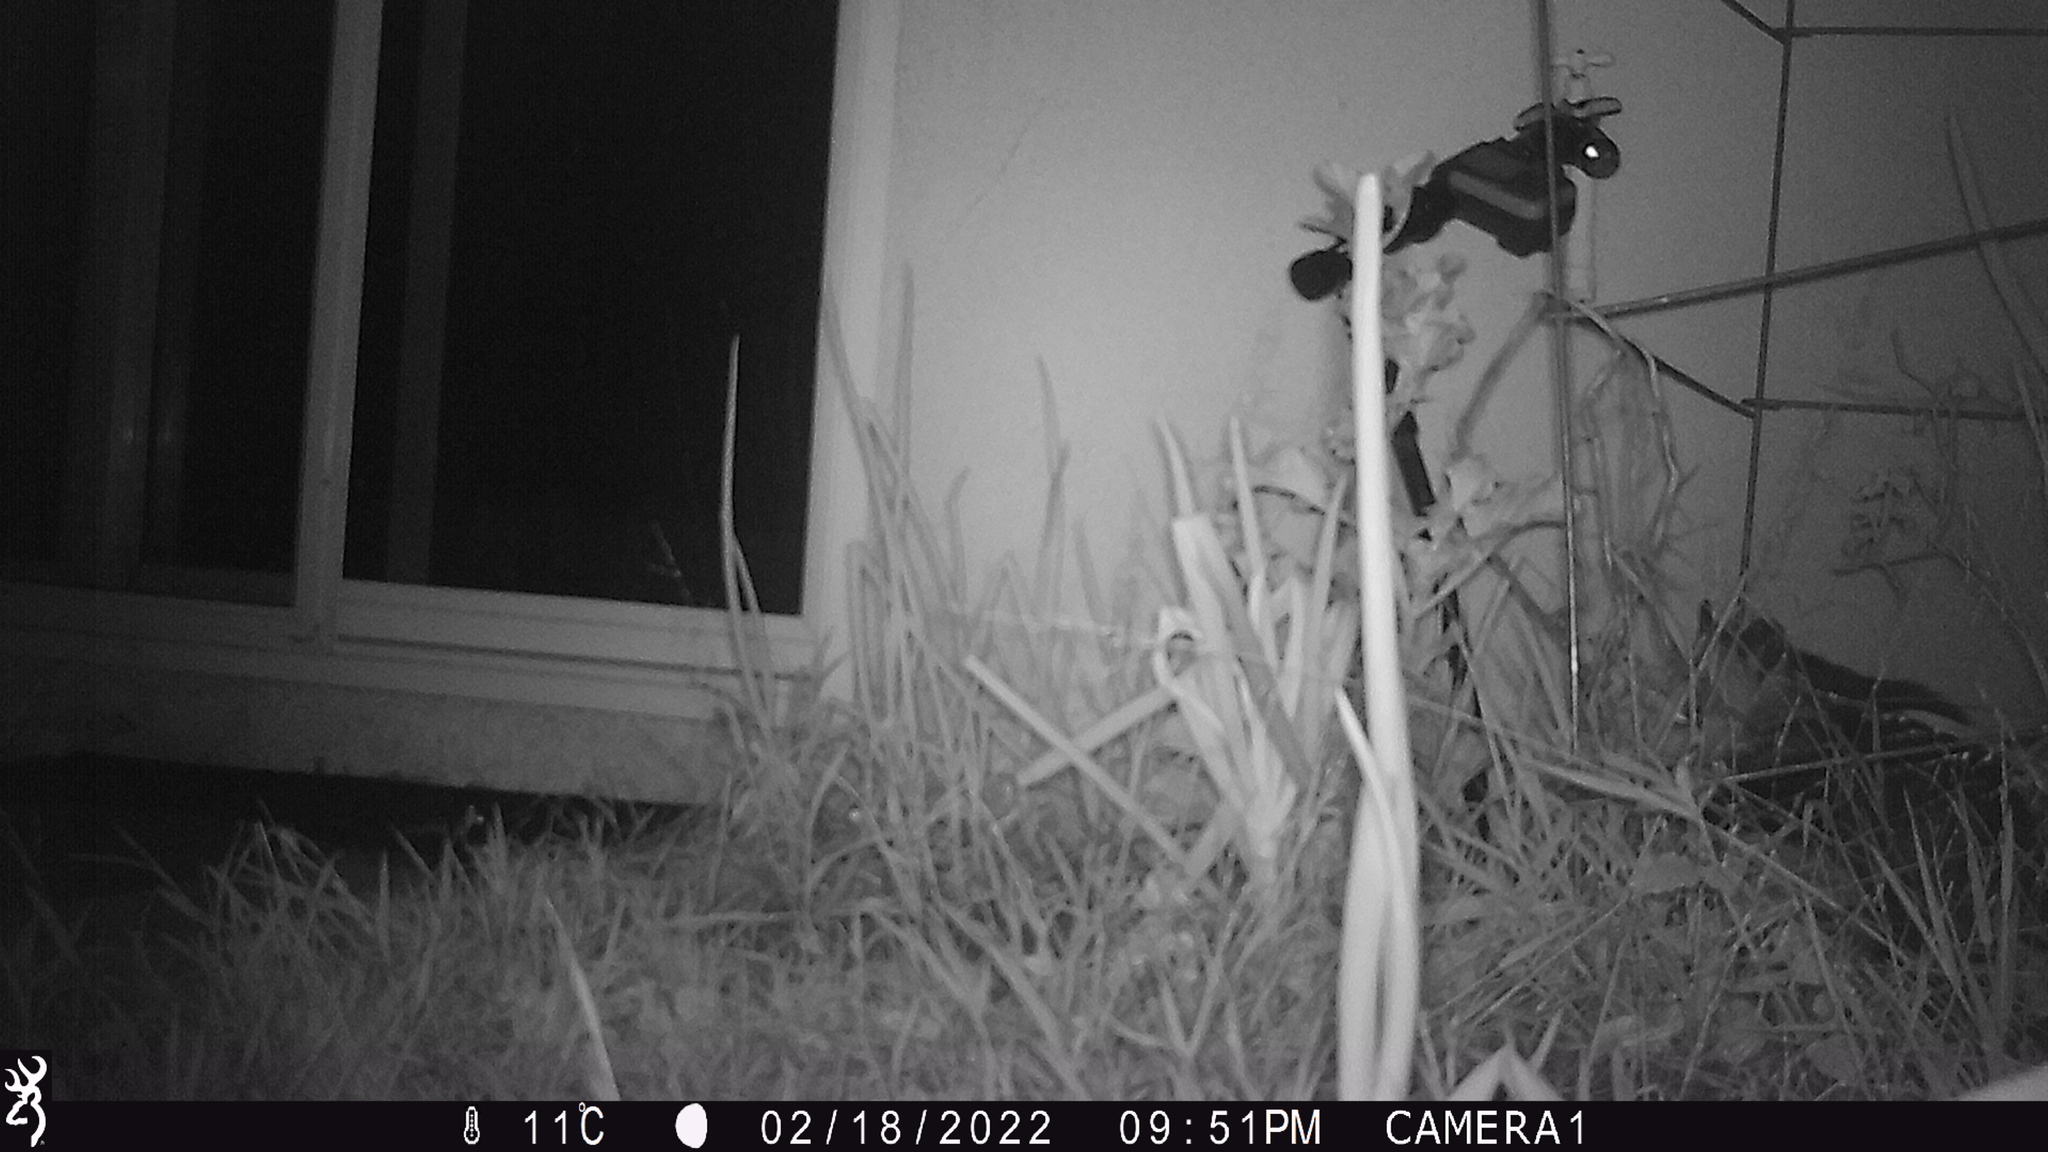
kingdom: Animalia
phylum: Chordata
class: Mammalia
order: Didelphimorphia
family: Didelphidae
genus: Didelphis
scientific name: Didelphis virginiana
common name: Virginia opossum
